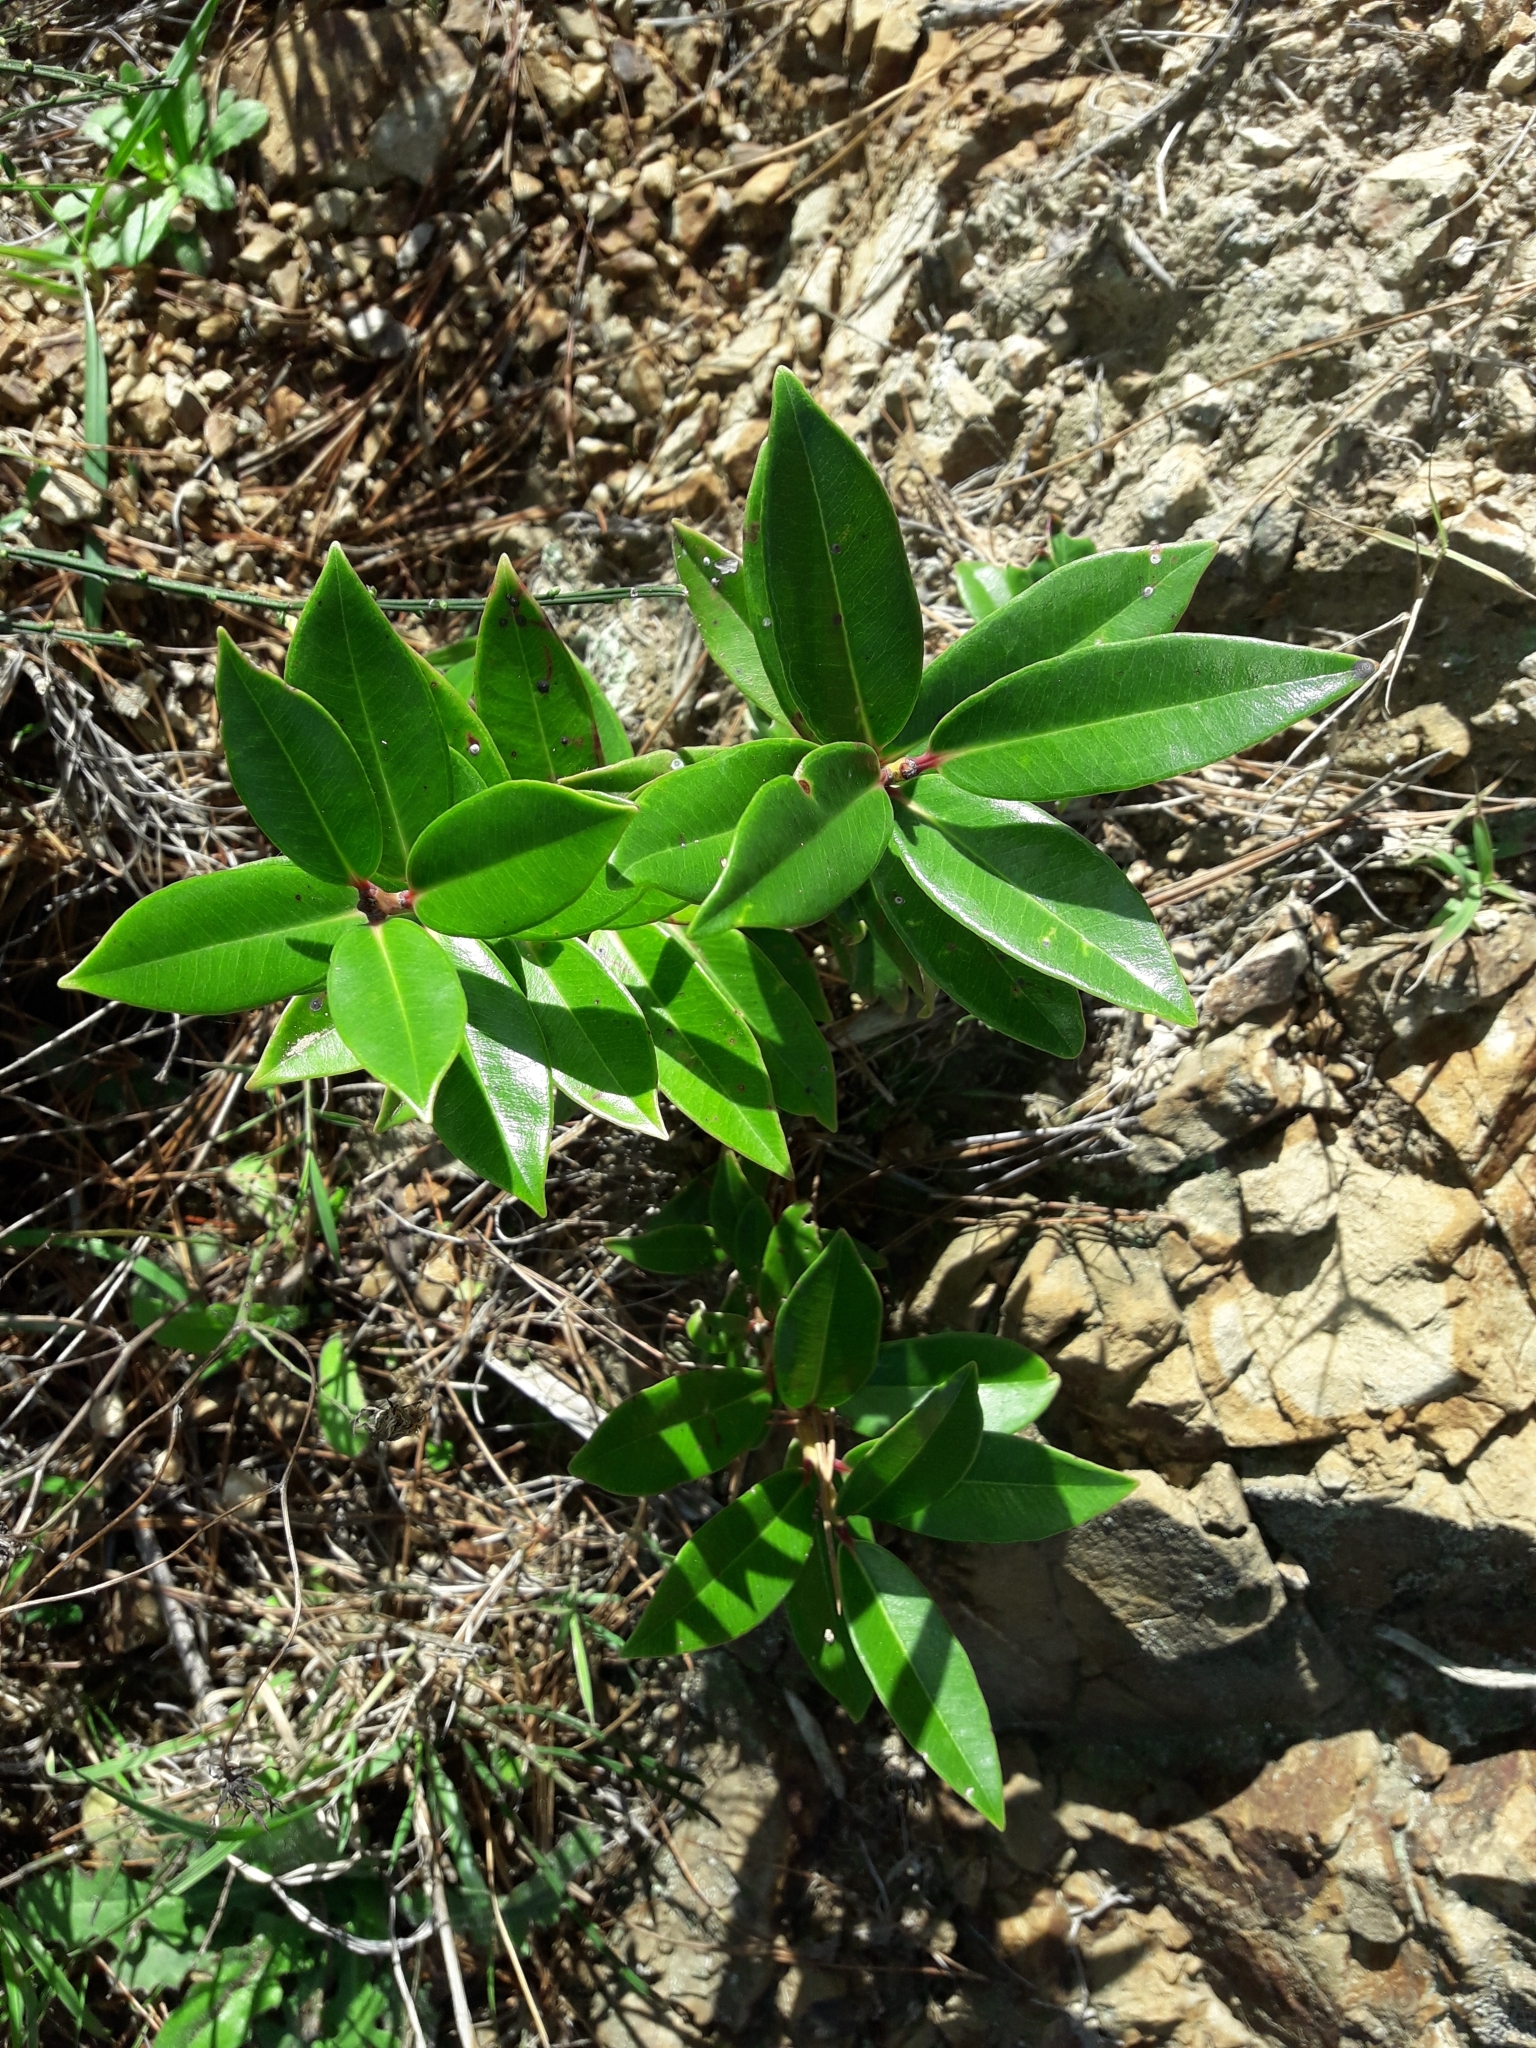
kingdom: Plantae
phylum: Tracheophyta
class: Magnoliopsida
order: Myrtales
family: Myrtaceae
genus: Metrosideros
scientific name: Metrosideros excelsa
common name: New zealand christmastree
